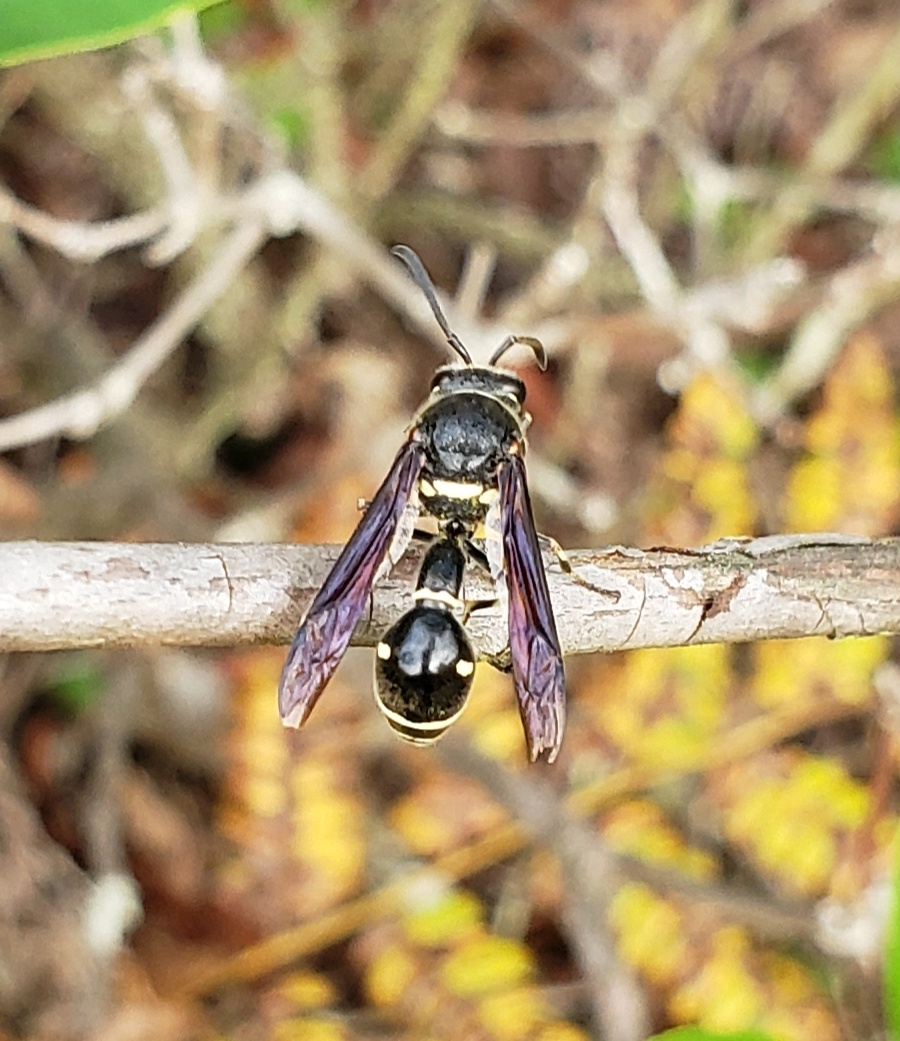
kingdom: Animalia
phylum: Arthropoda
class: Insecta
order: Hymenoptera
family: Vespidae
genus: Eumenes
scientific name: Eumenes fraternus
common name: Fraternal potter wasp
